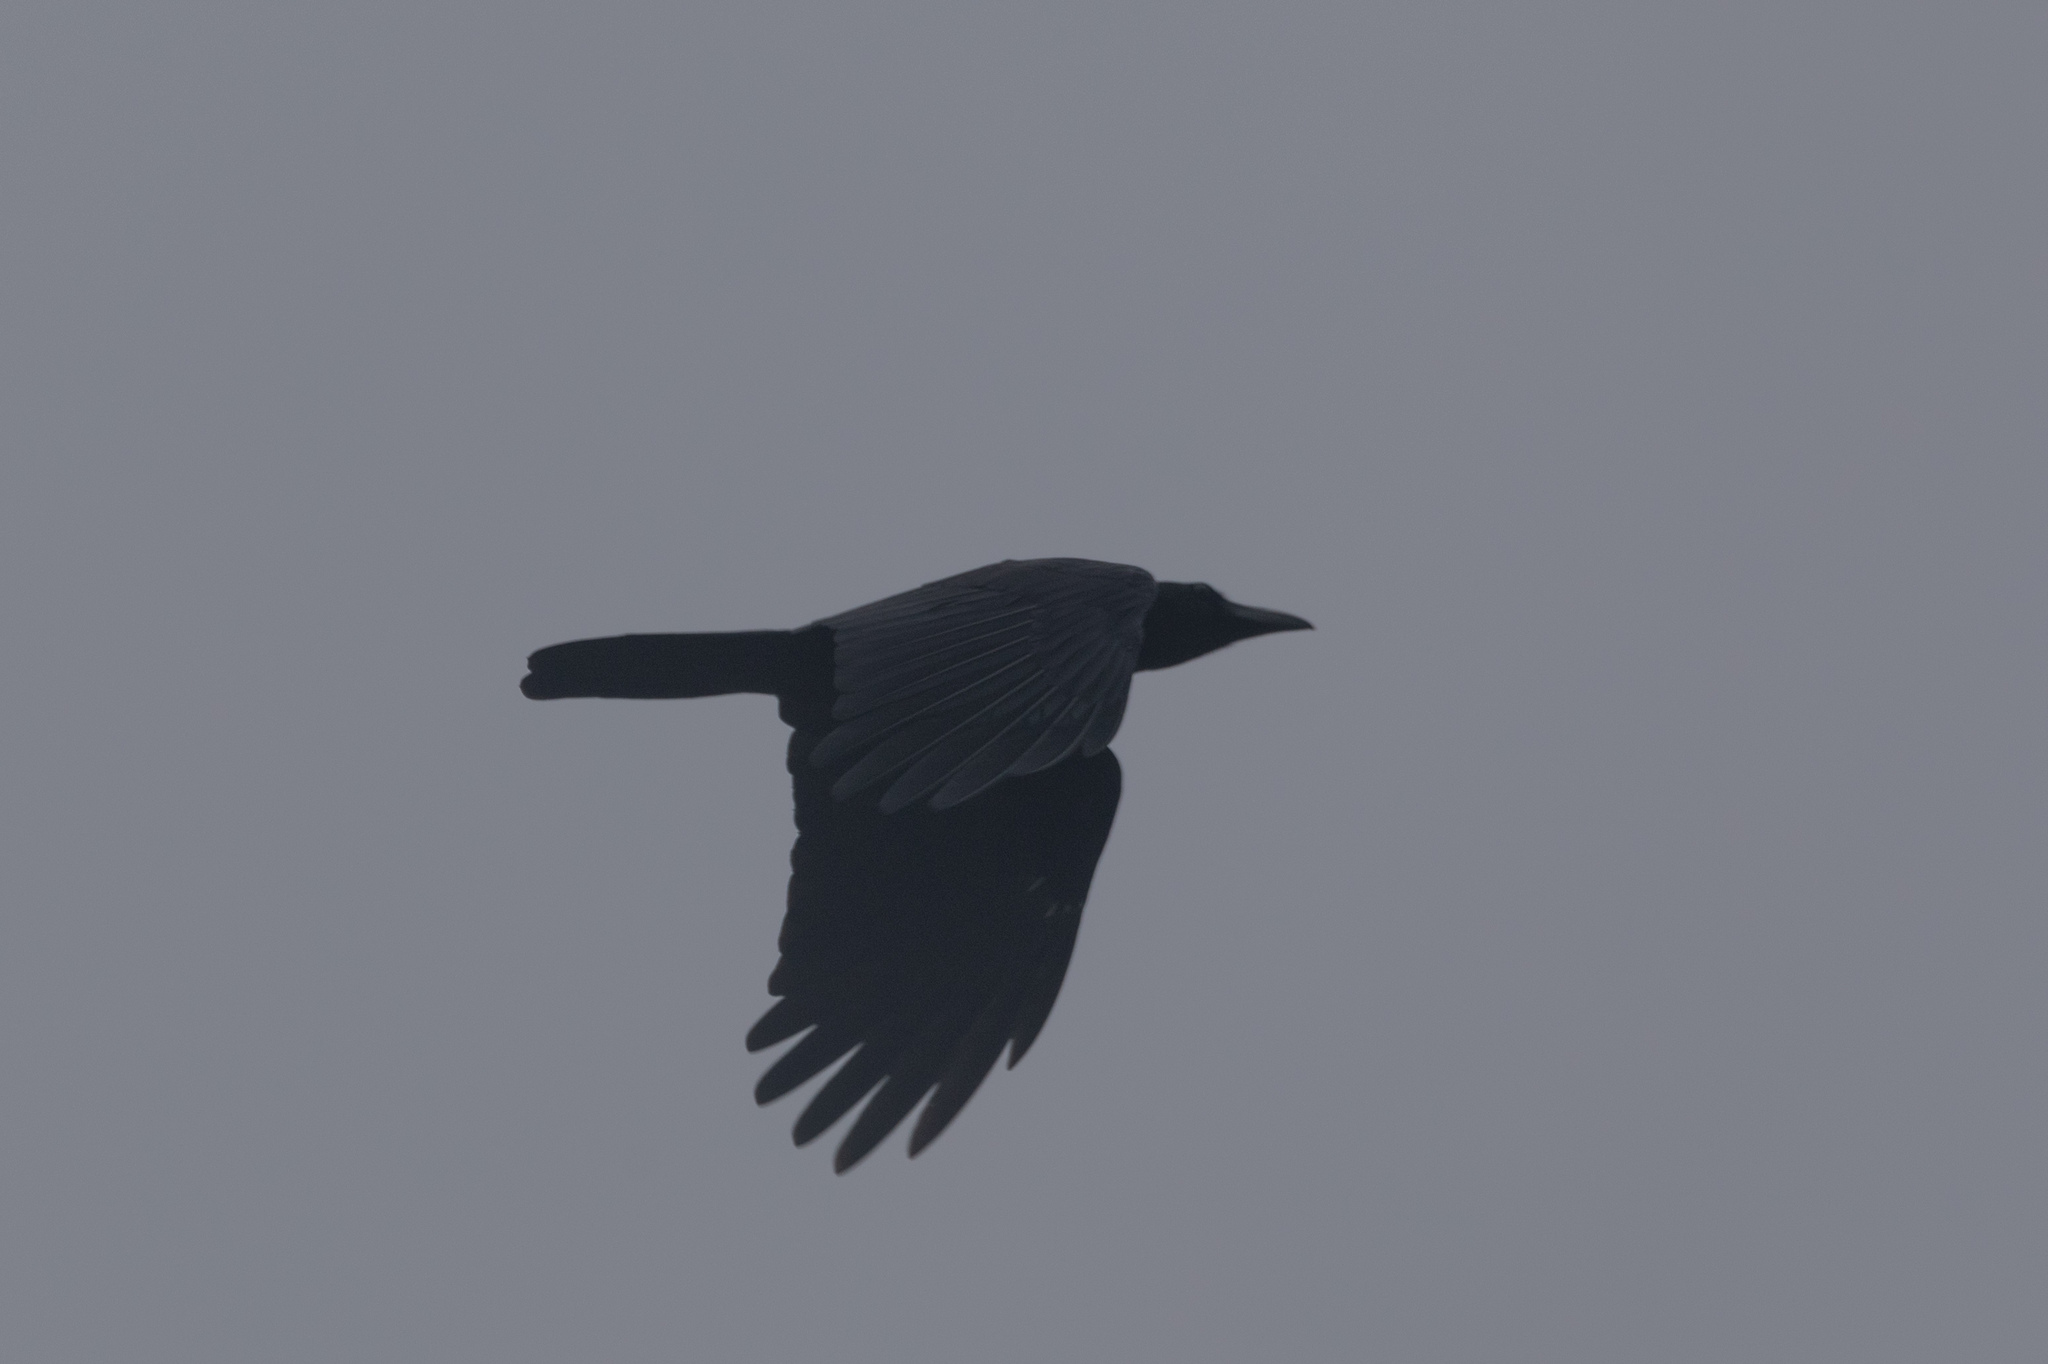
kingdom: Animalia
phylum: Chordata
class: Aves
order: Passeriformes
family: Corvidae
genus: Corvus
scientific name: Corvus macrorhynchos
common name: Large-billed crow
